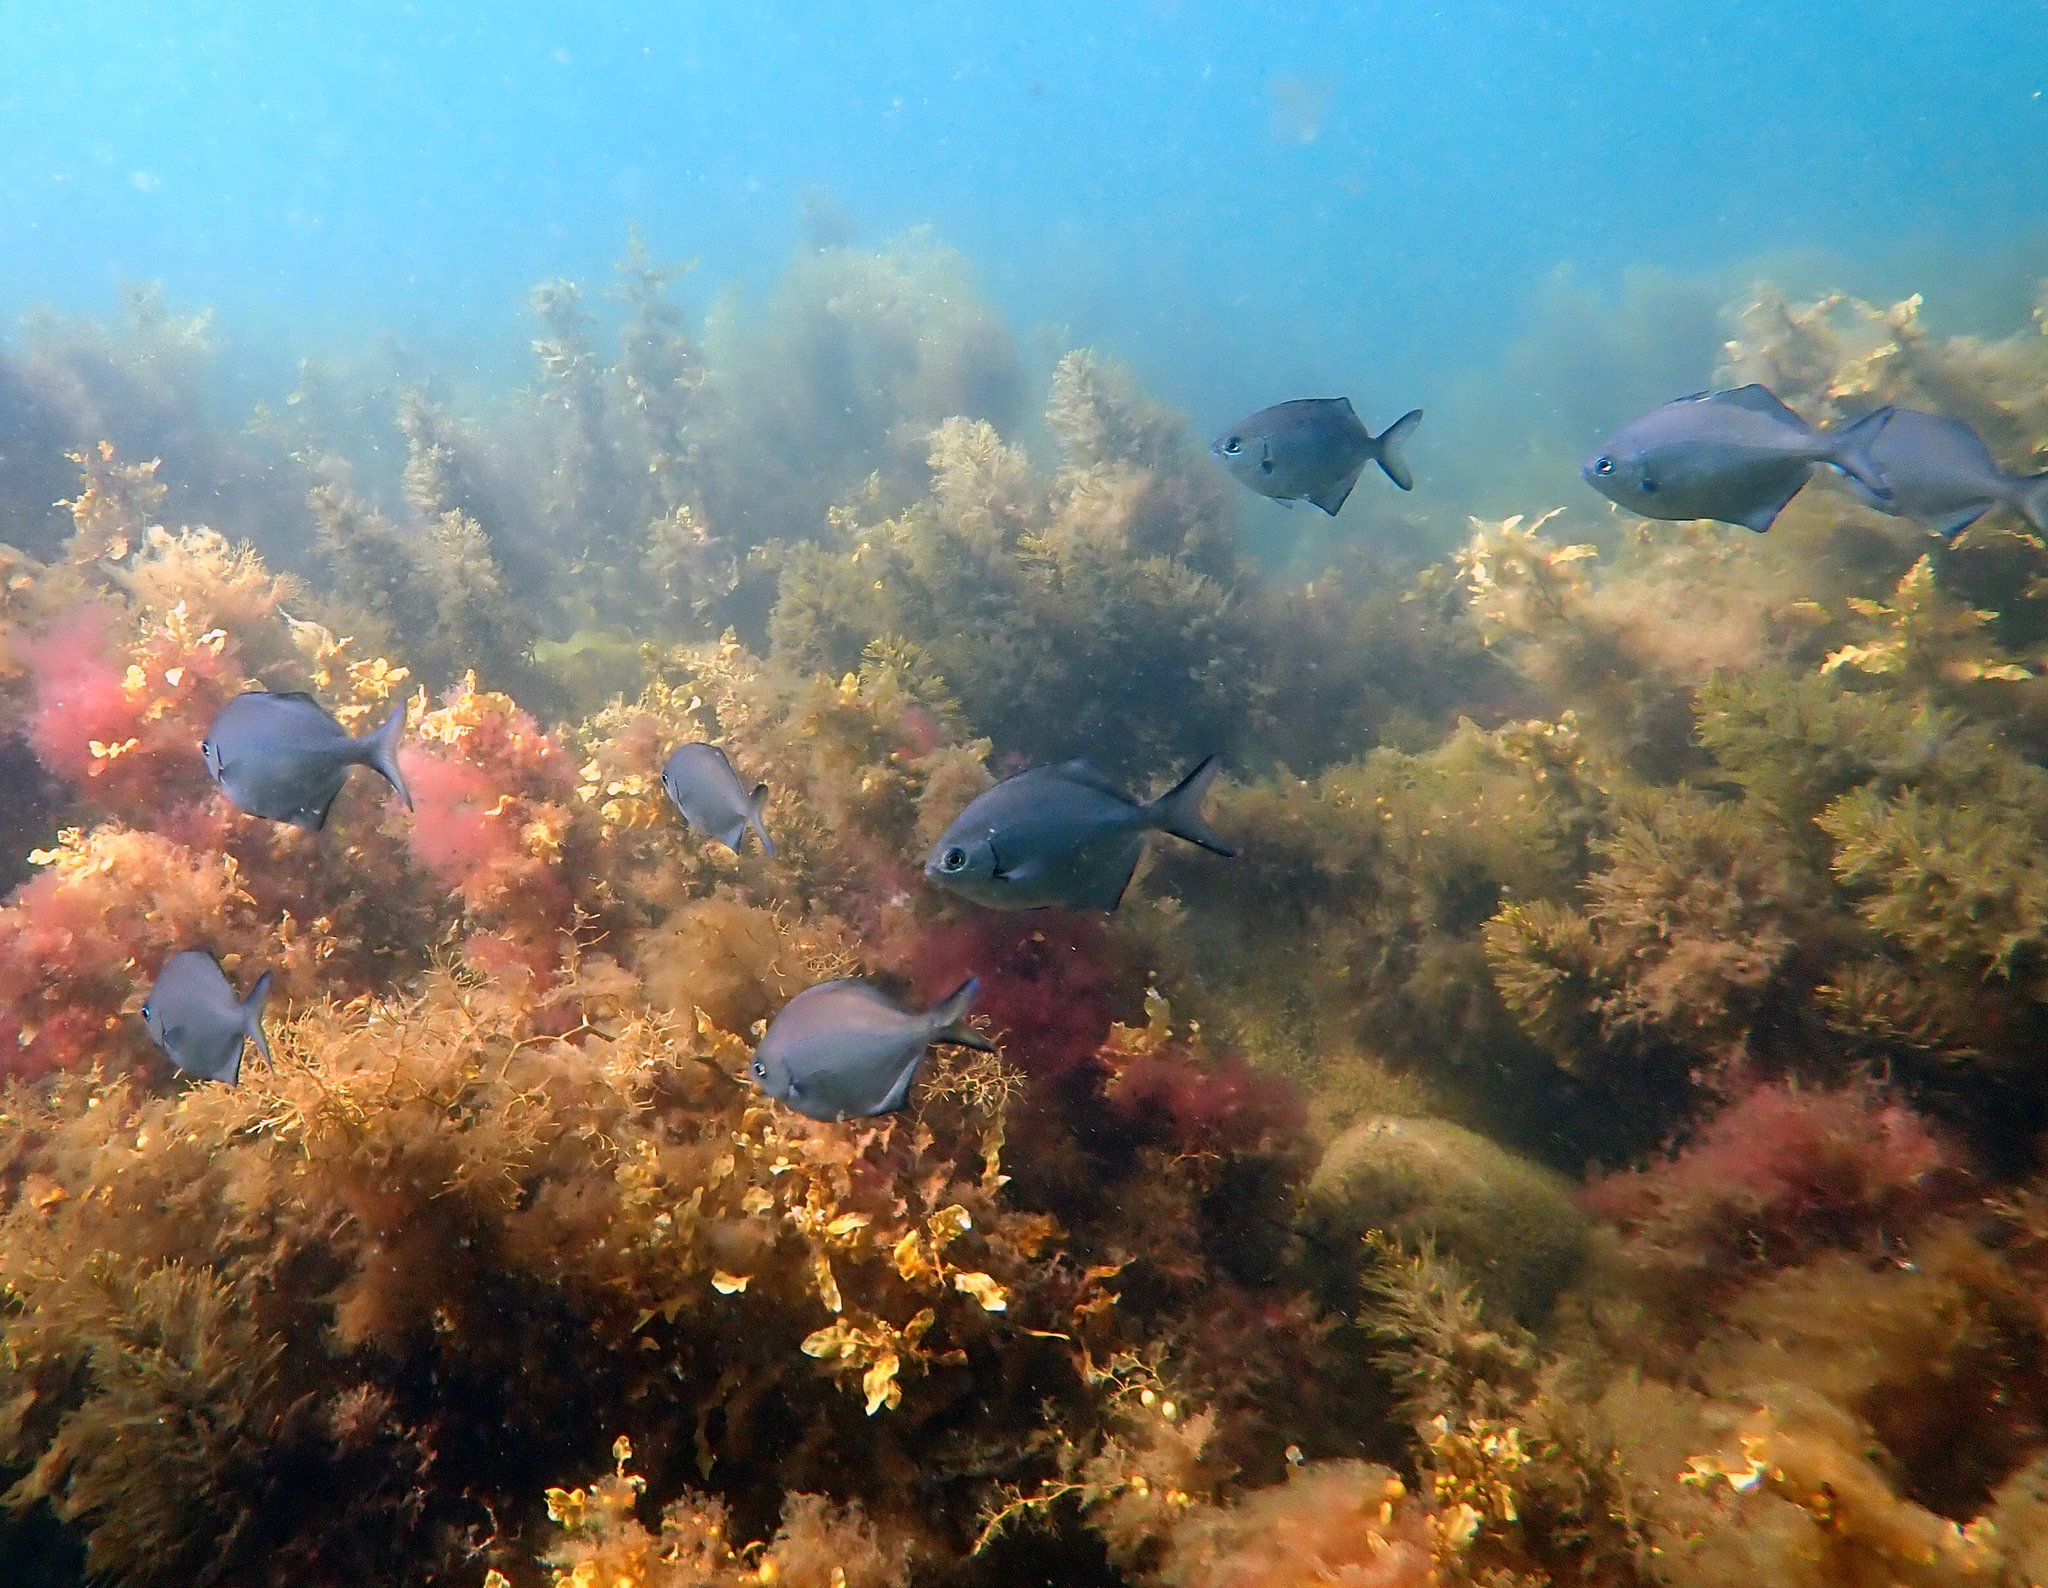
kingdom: Animalia
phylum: Chordata
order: Perciformes
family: Kyphosidae
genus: Scorpis
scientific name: Scorpis lineolata
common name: Sweep
